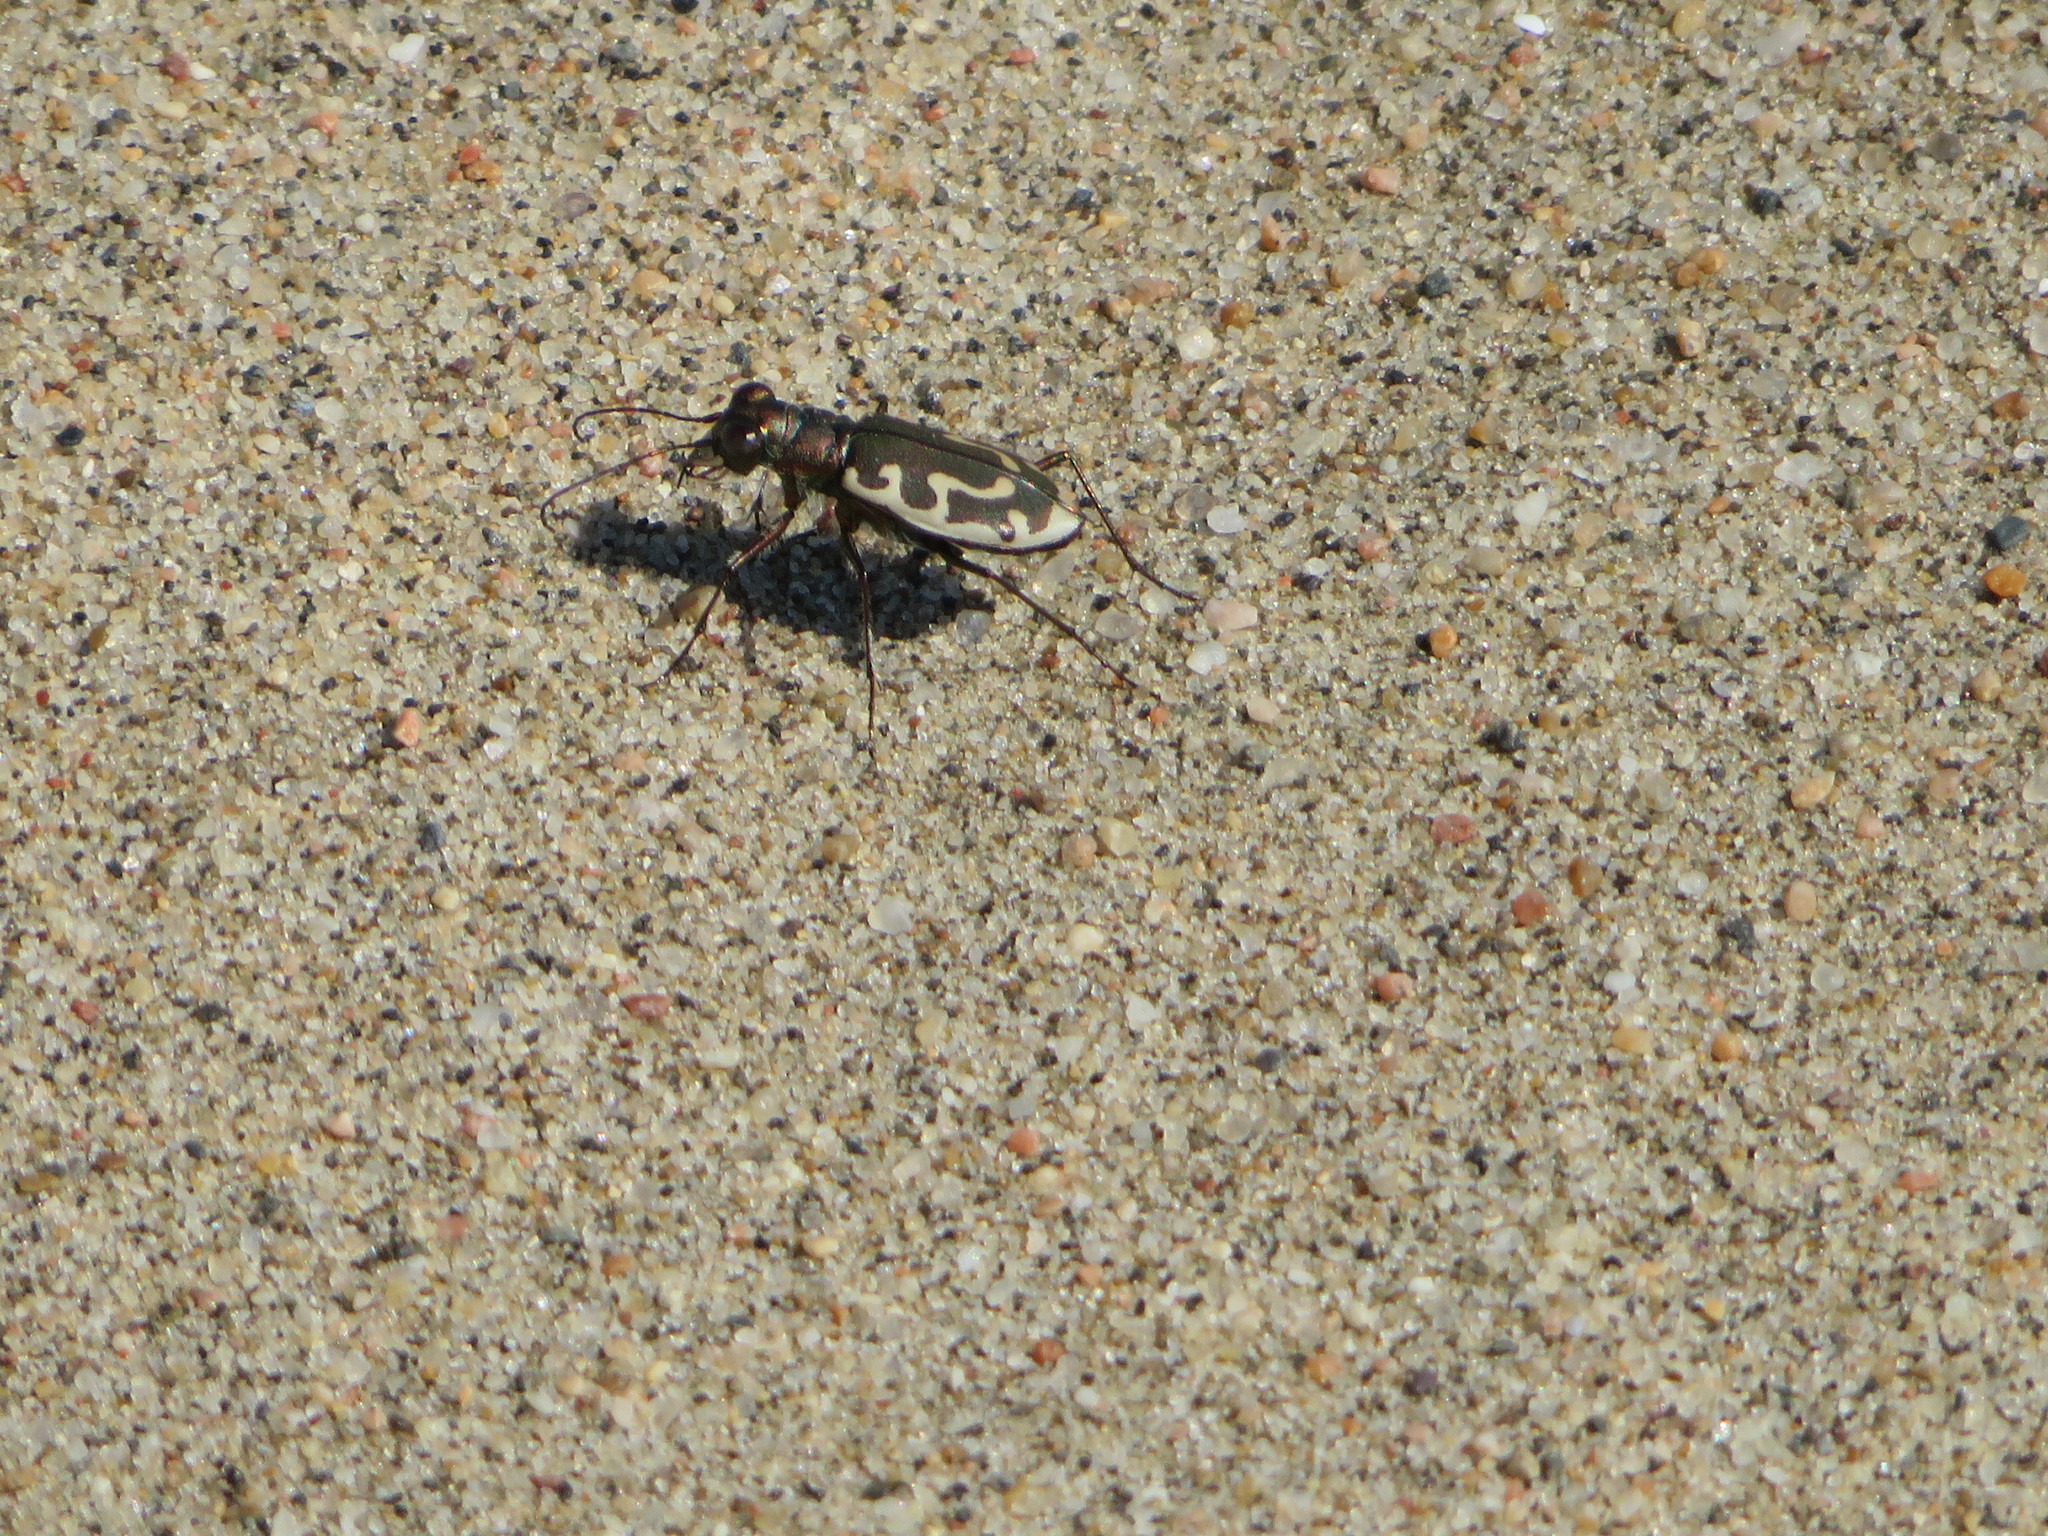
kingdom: Animalia
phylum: Arthropoda
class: Insecta
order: Coleoptera
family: Carabidae
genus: Cicindela
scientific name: Cicindela hirticollis
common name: Hairy-necked tiger beetle
